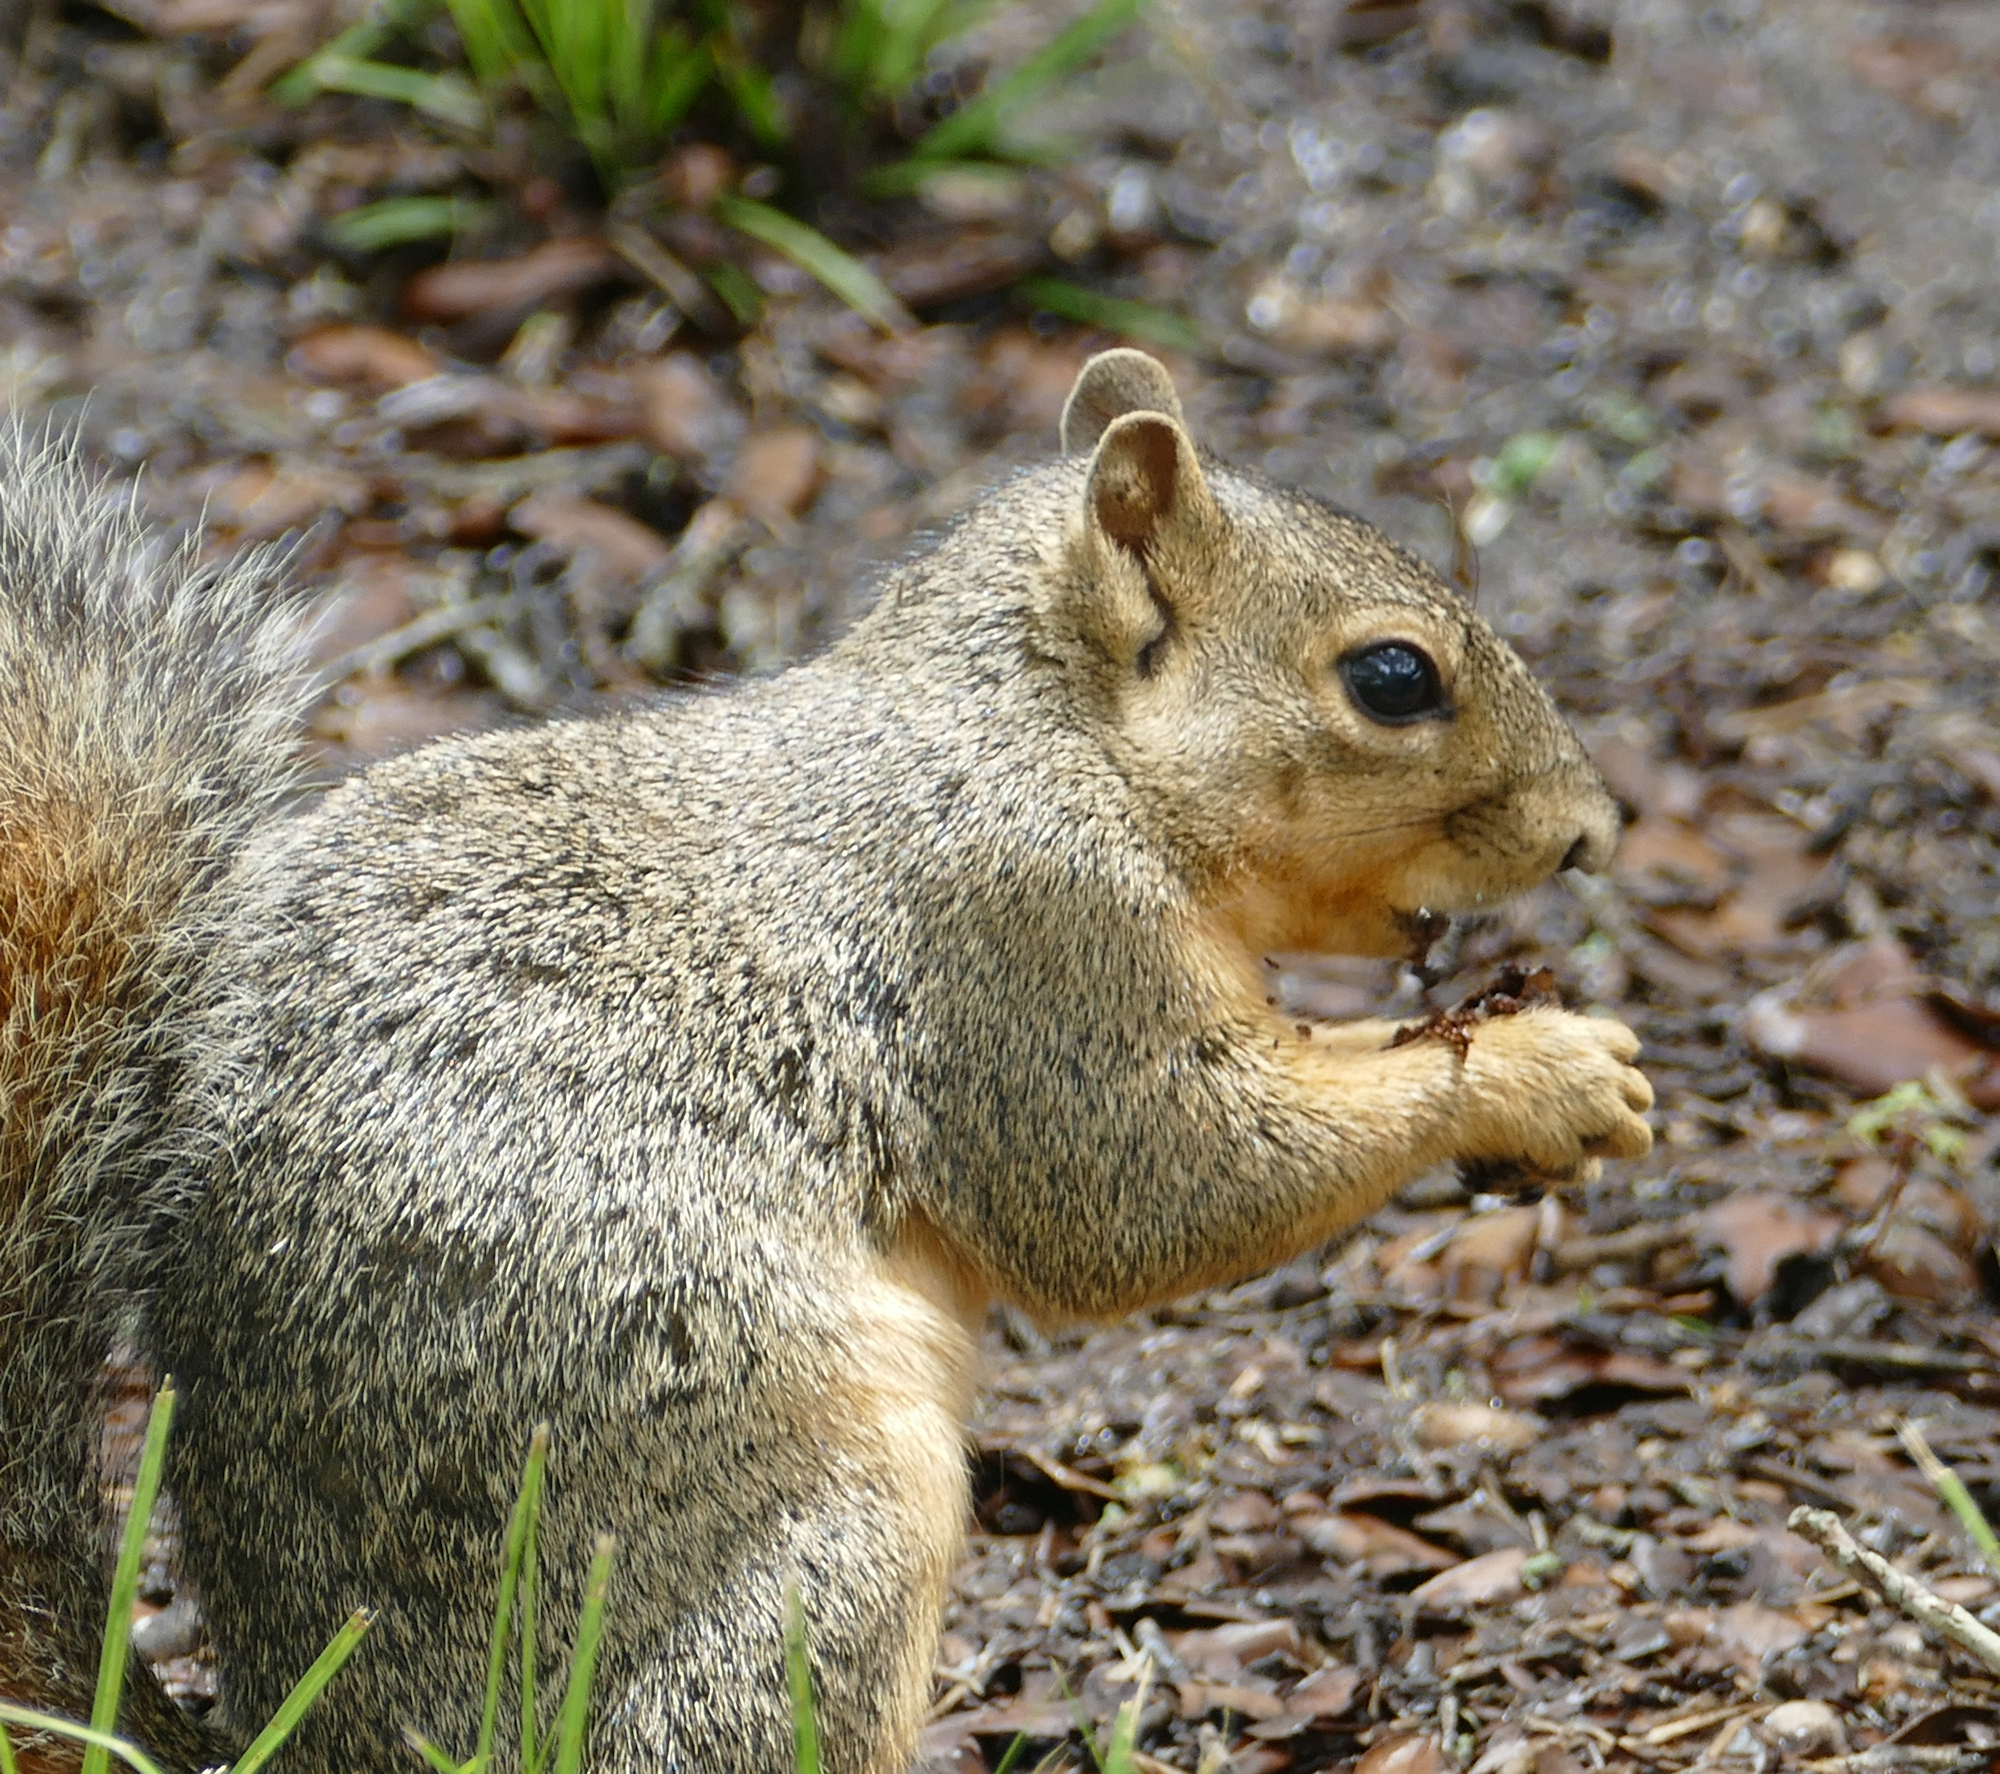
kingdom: Animalia
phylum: Chordata
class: Mammalia
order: Rodentia
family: Sciuridae
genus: Sciurus
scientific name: Sciurus niger
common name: Fox squirrel
